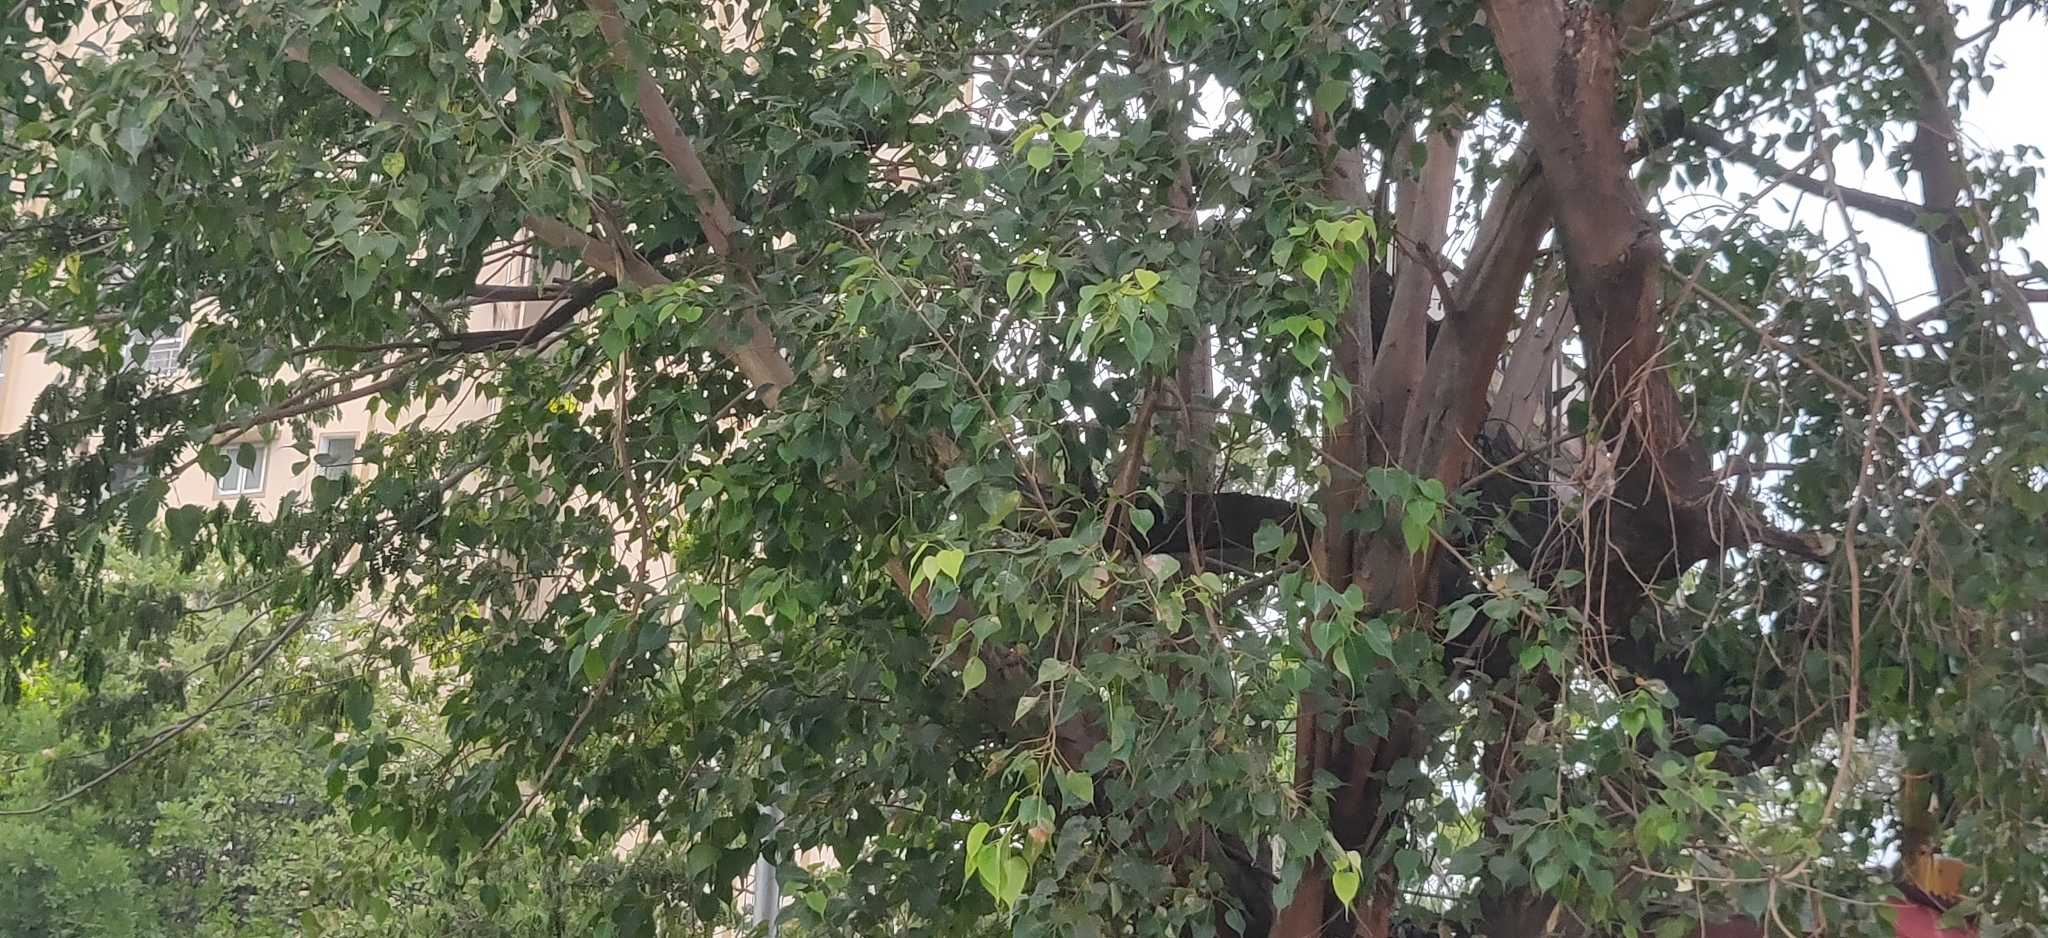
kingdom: Plantae
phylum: Tracheophyta
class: Magnoliopsida
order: Rosales
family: Moraceae
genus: Ficus
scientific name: Ficus religiosa
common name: Bodhi tree
